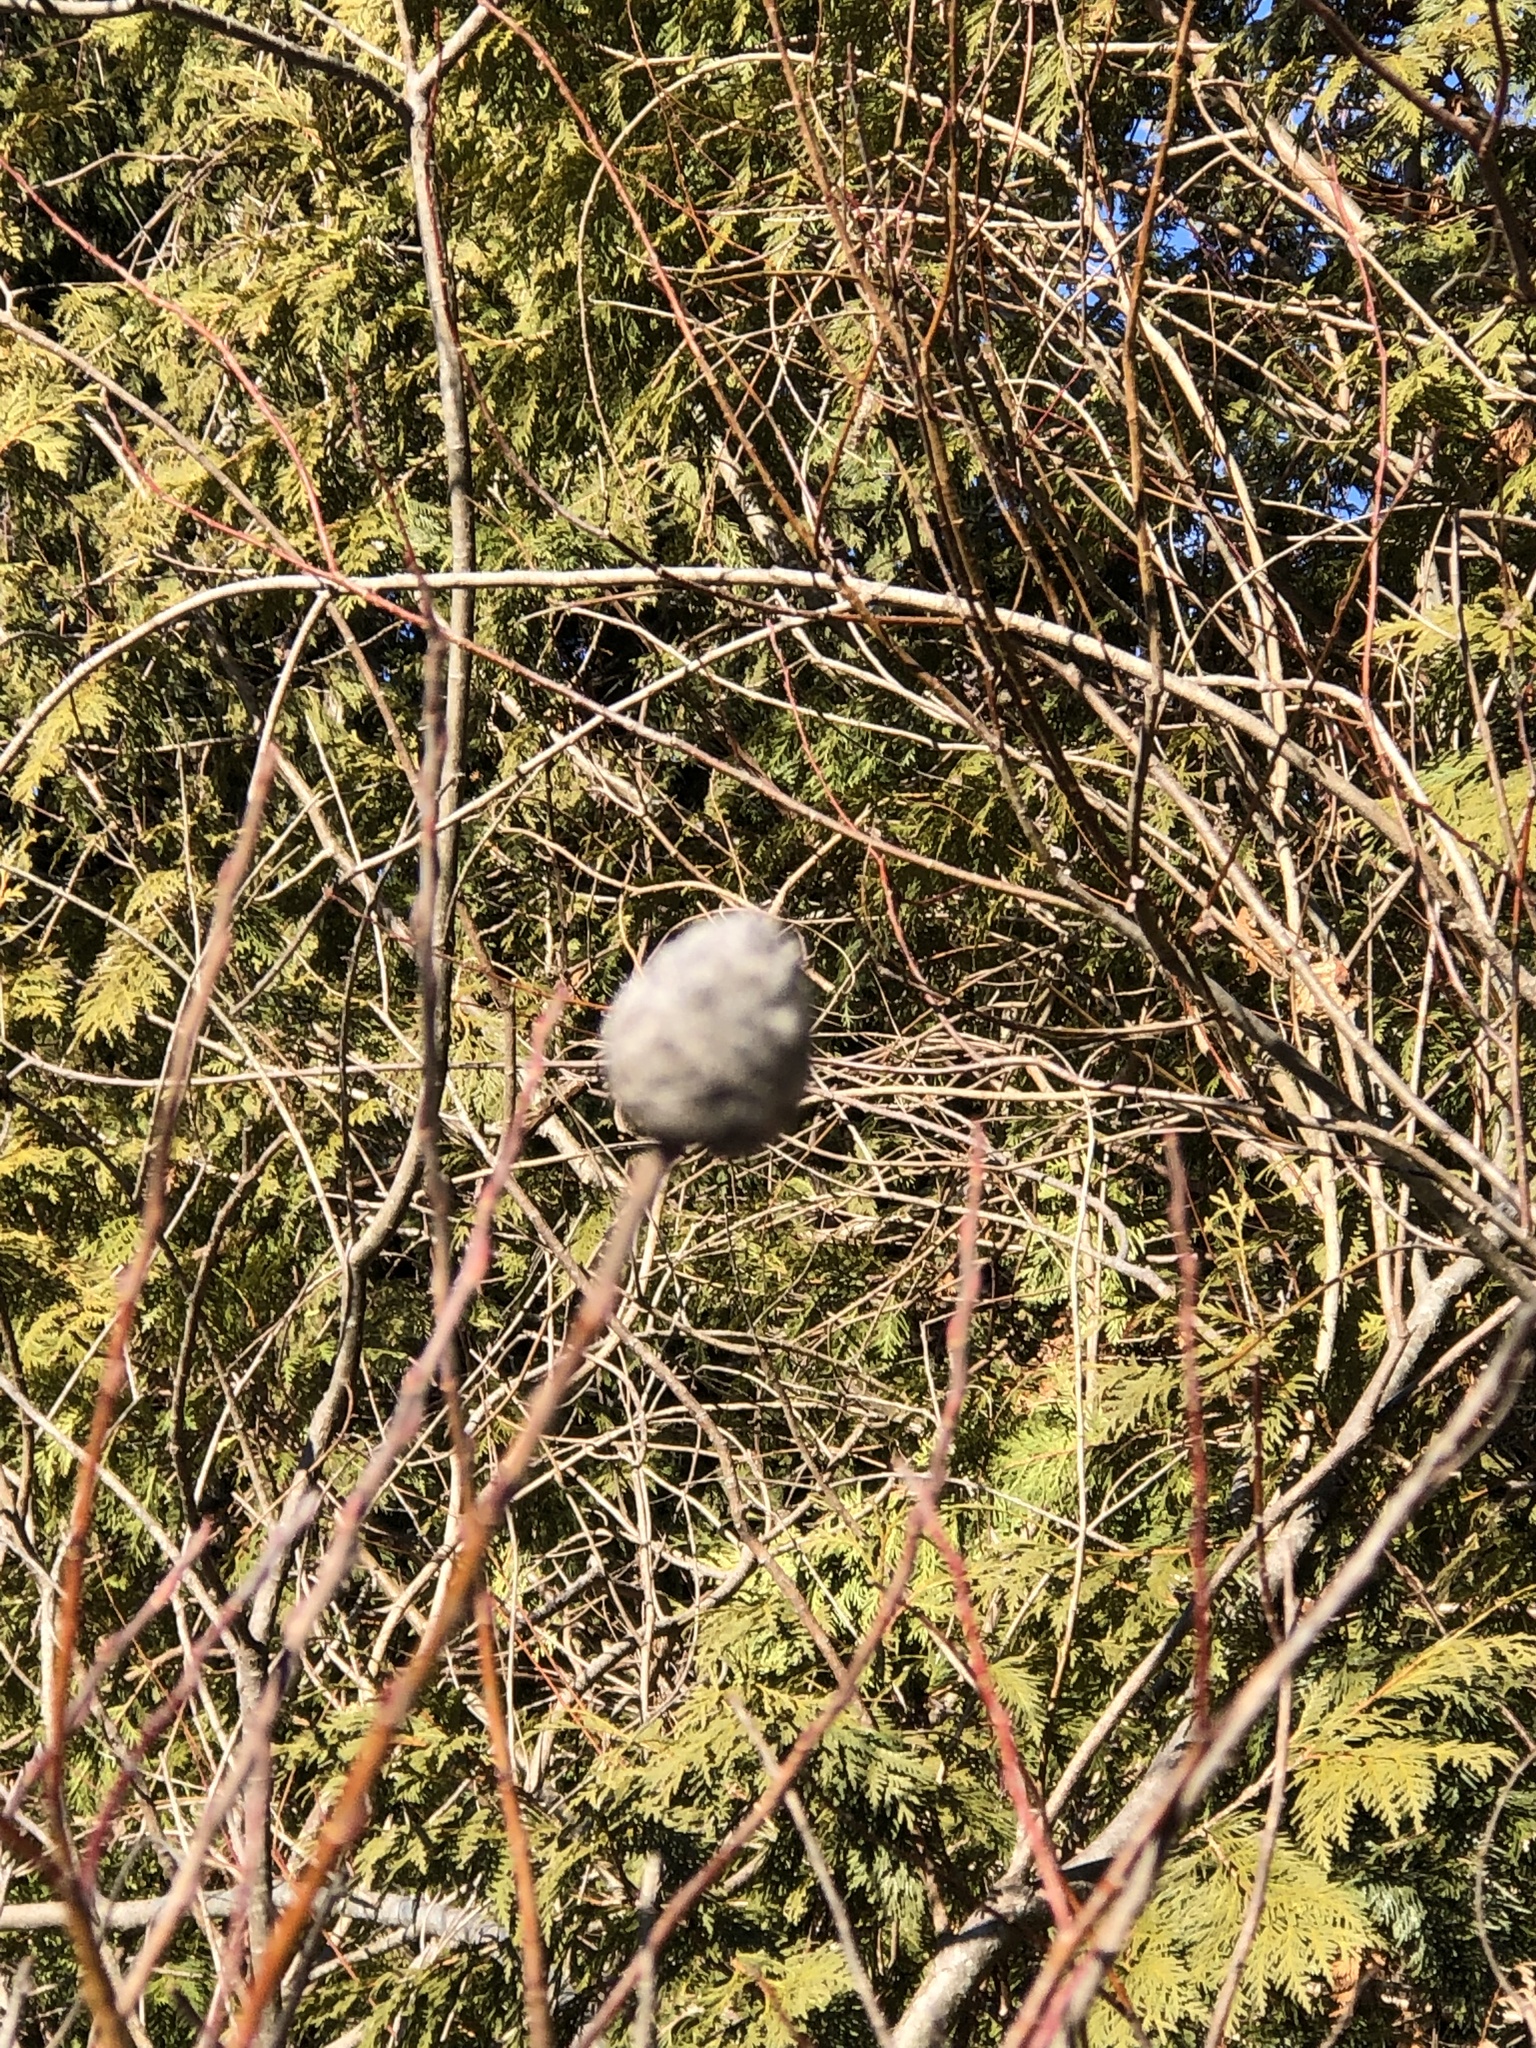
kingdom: Animalia
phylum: Arthropoda
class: Insecta
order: Diptera
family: Cecidomyiidae
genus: Rabdophaga
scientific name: Rabdophaga strobiloides
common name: Willow pinecone gall midge
